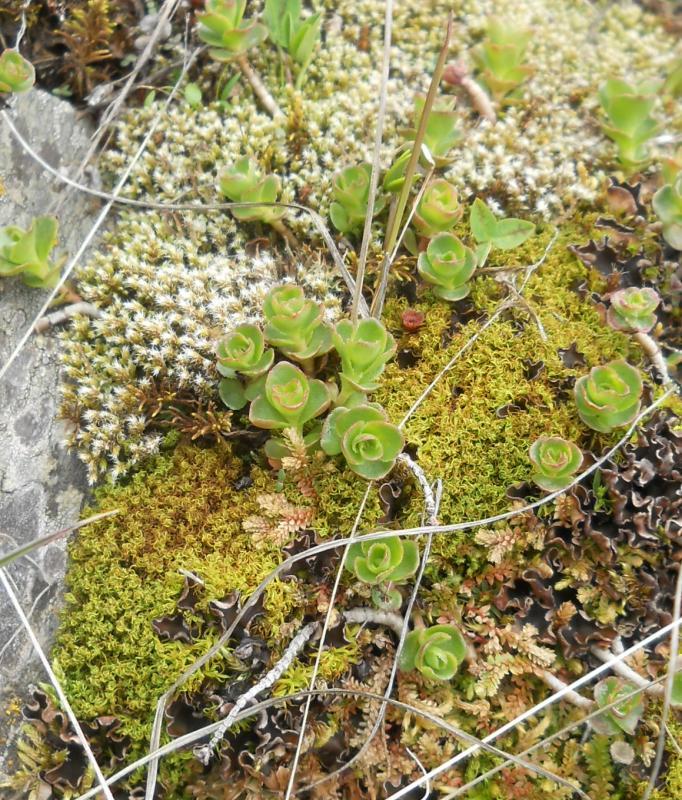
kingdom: Plantae
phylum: Tracheophyta
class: Magnoliopsida
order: Saxifragales
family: Crassulaceae
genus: Phedimus
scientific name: Phedimus spurius
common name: Caucasian stonecrop
